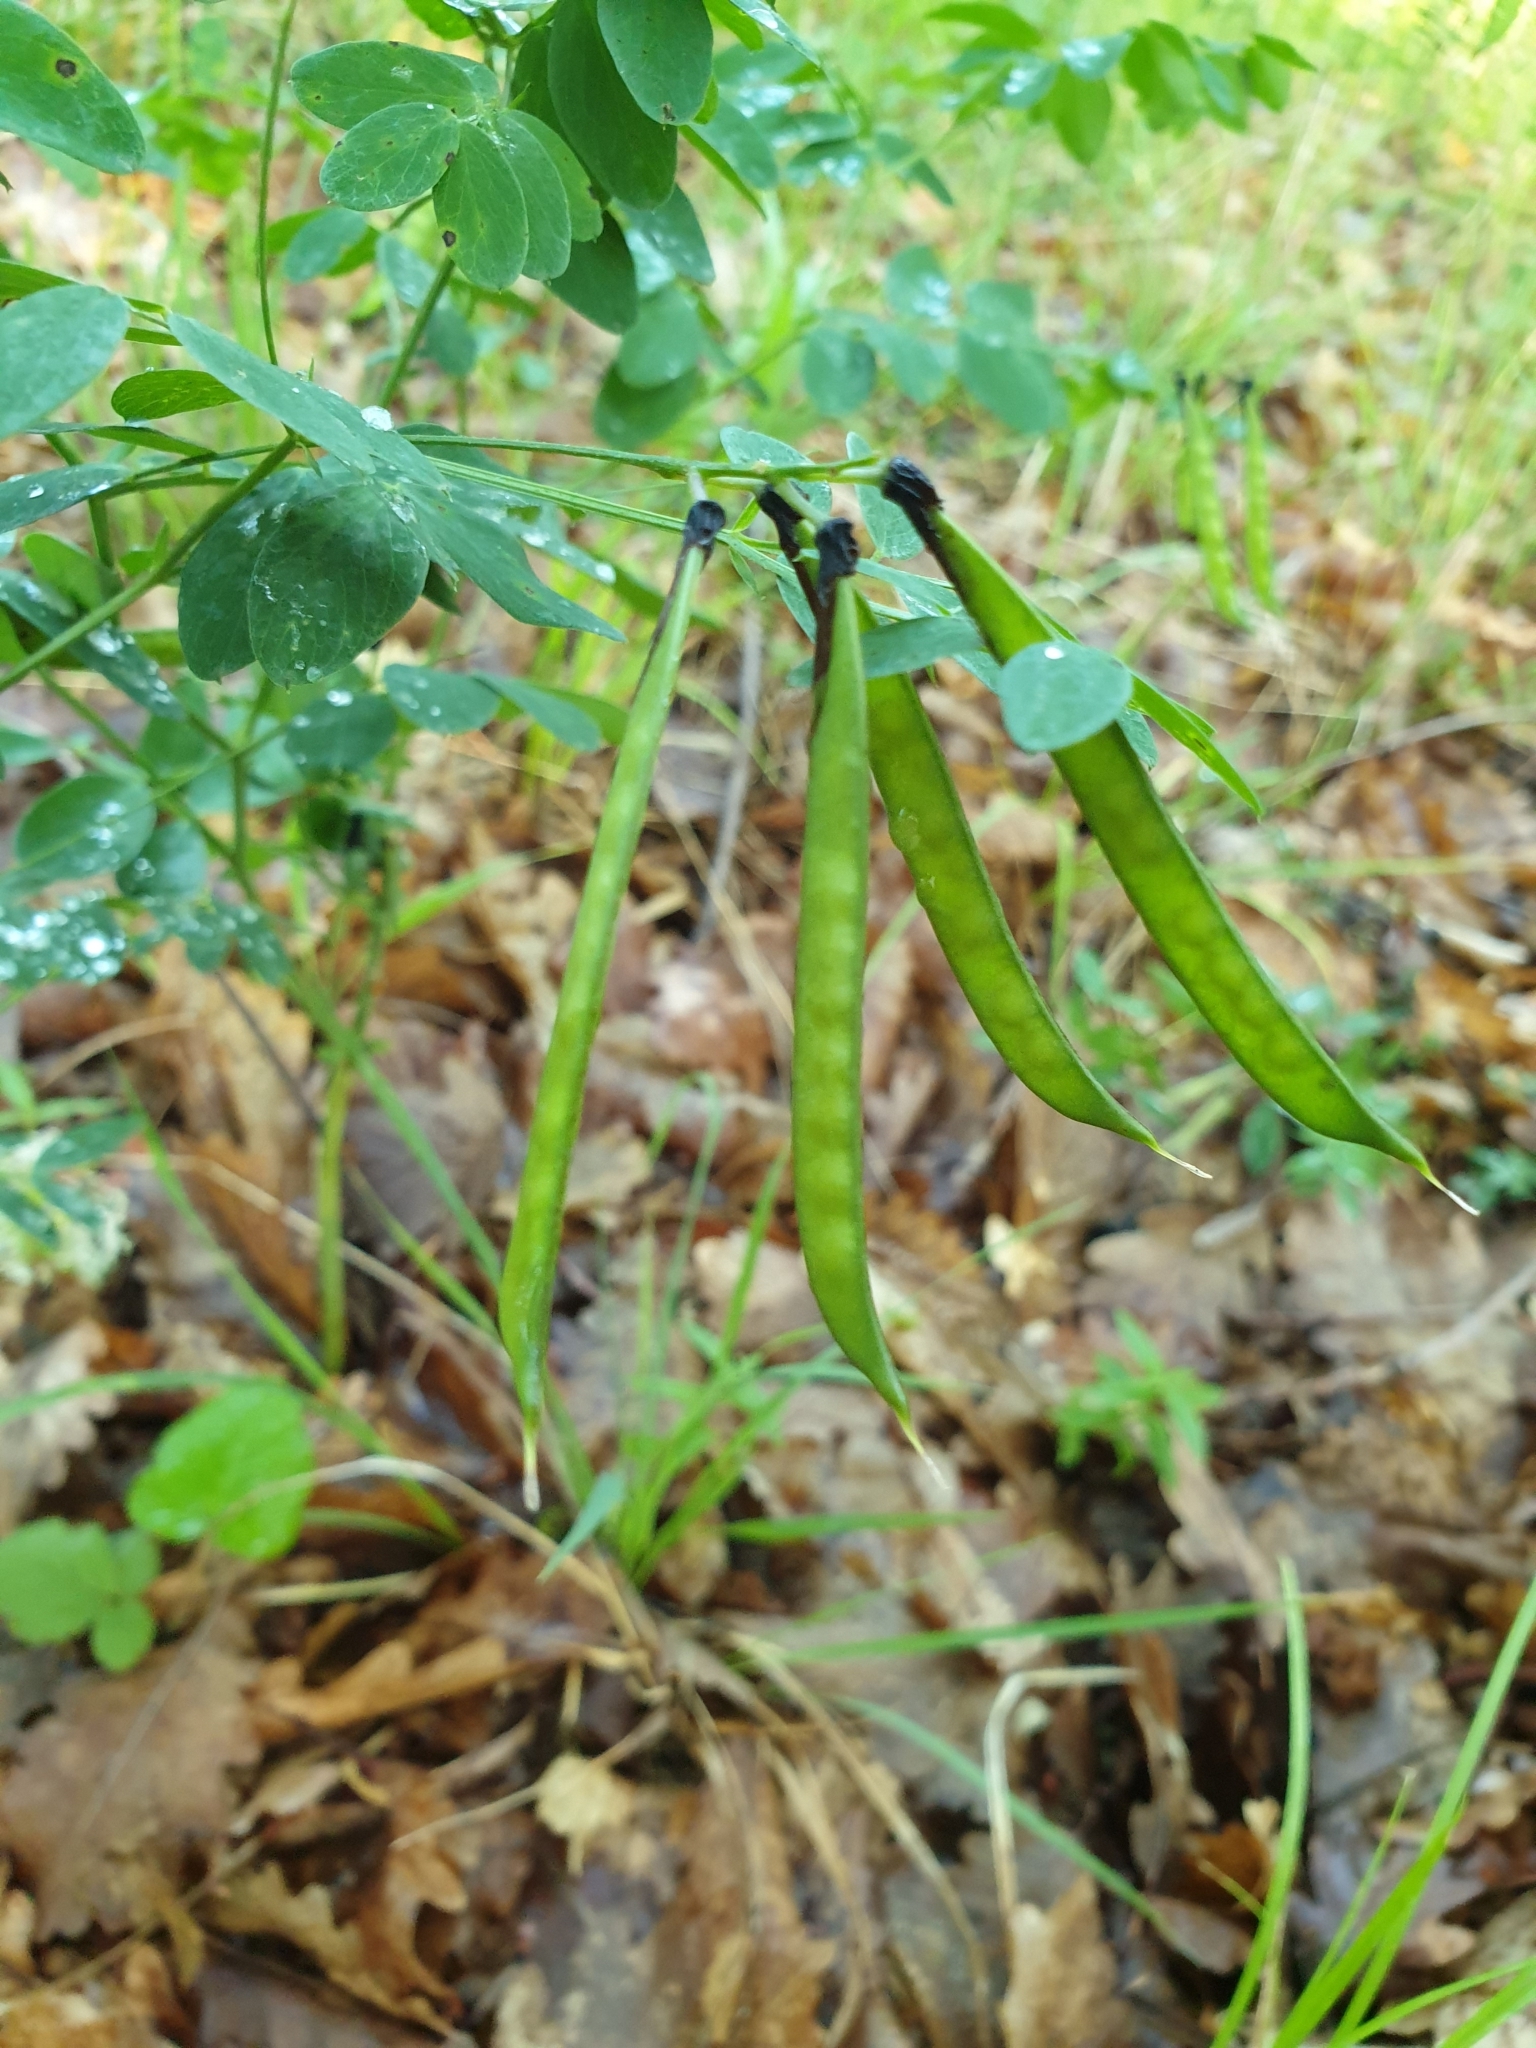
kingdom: Plantae
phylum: Tracheophyta
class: Magnoliopsida
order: Fabales
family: Fabaceae
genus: Lathyrus
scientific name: Lathyrus niger
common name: Black pea
